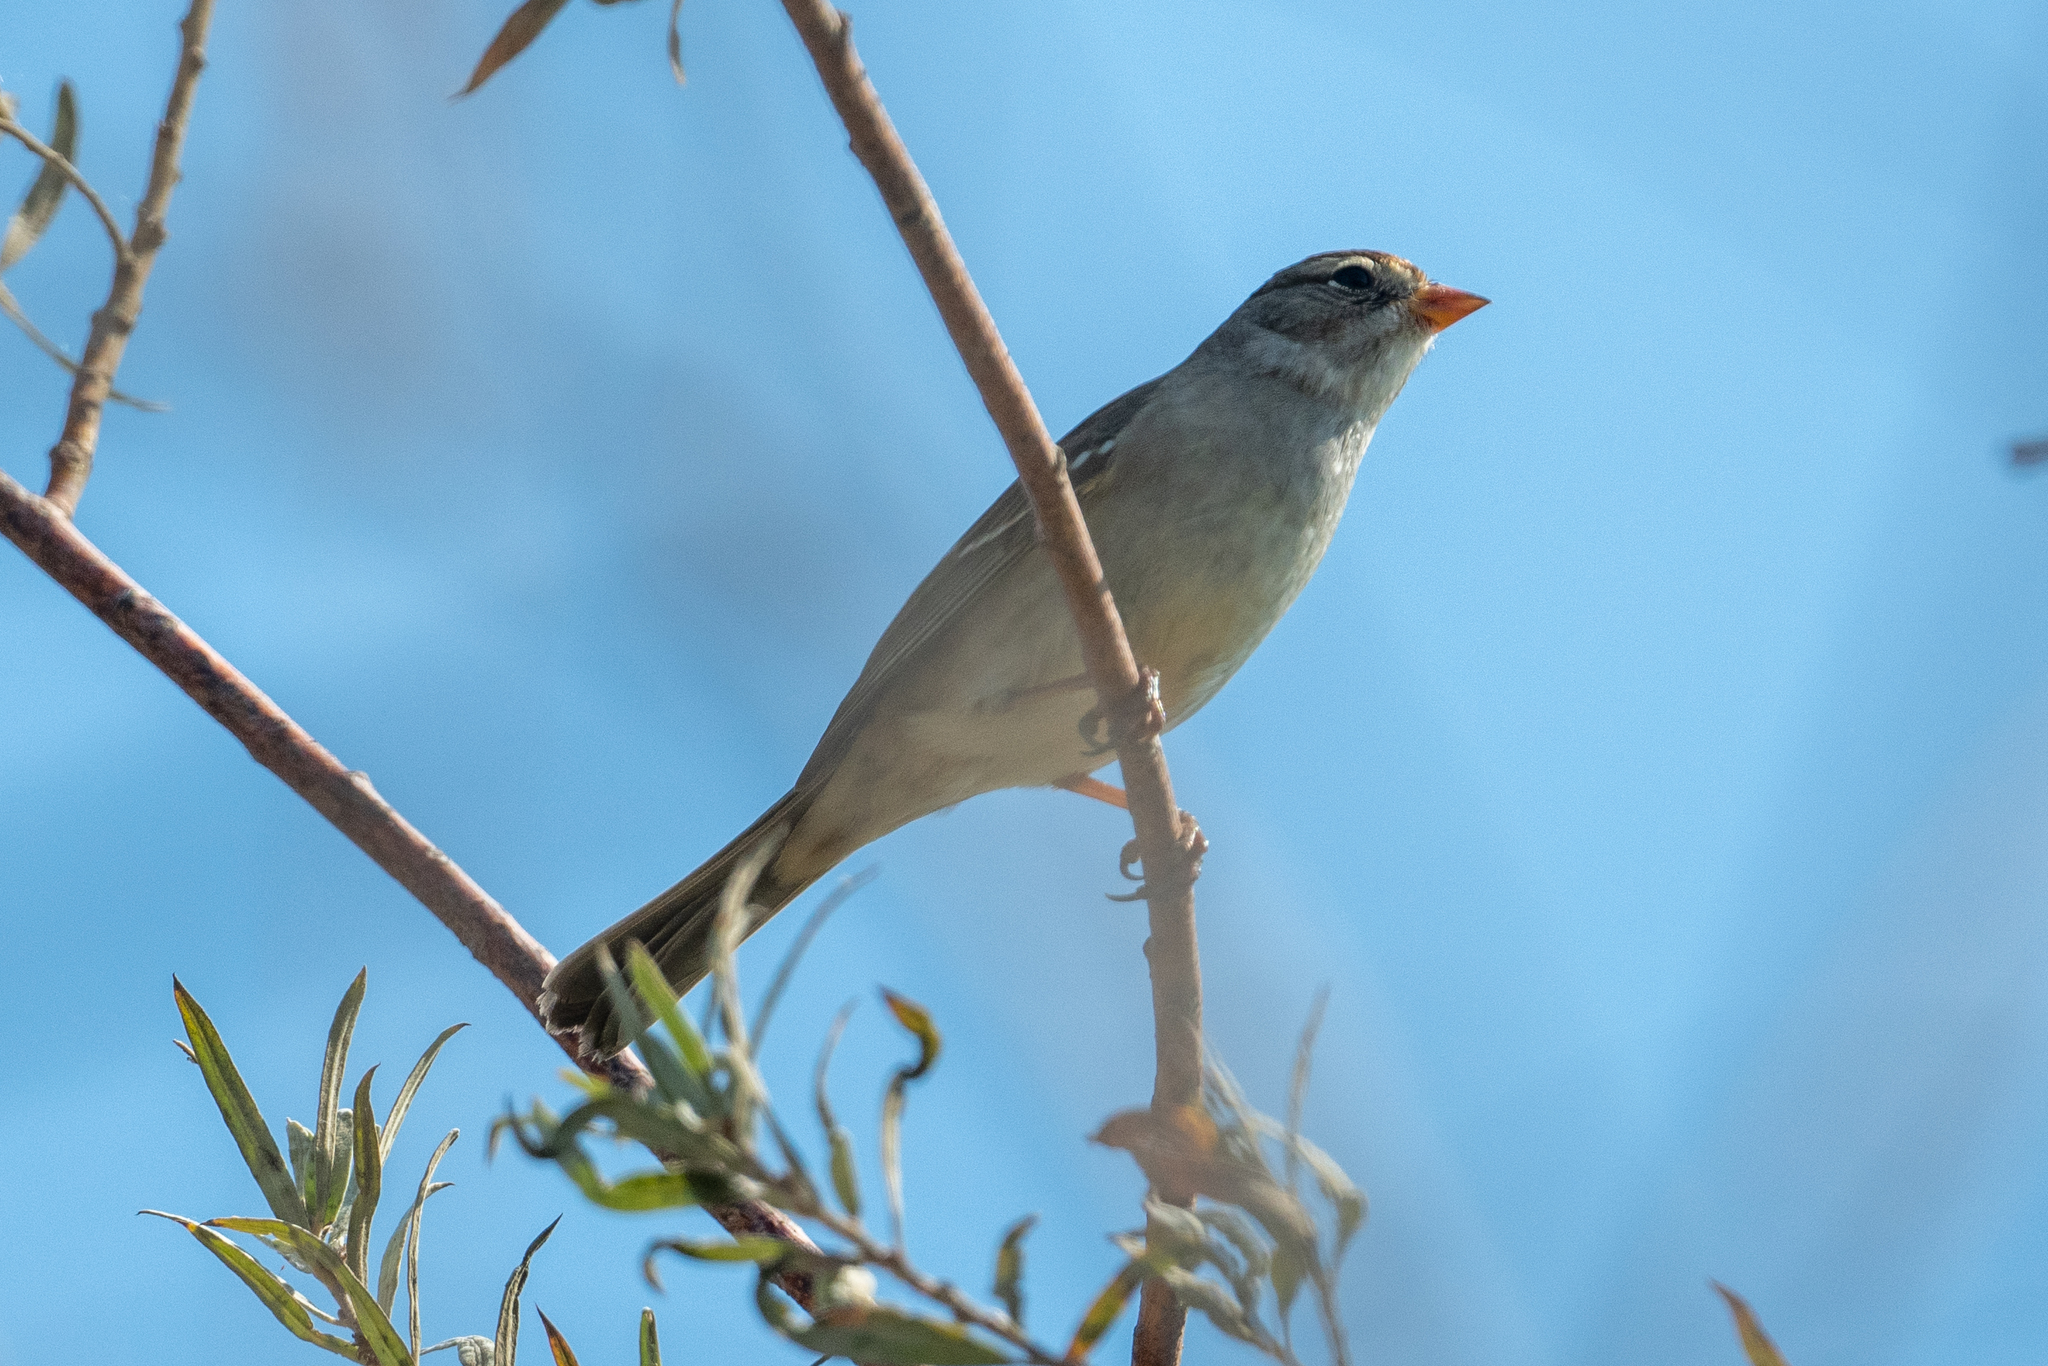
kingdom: Animalia
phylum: Chordata
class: Aves
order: Passeriformes
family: Passerellidae
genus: Zonotrichia
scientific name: Zonotrichia leucophrys
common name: White-crowned sparrow
